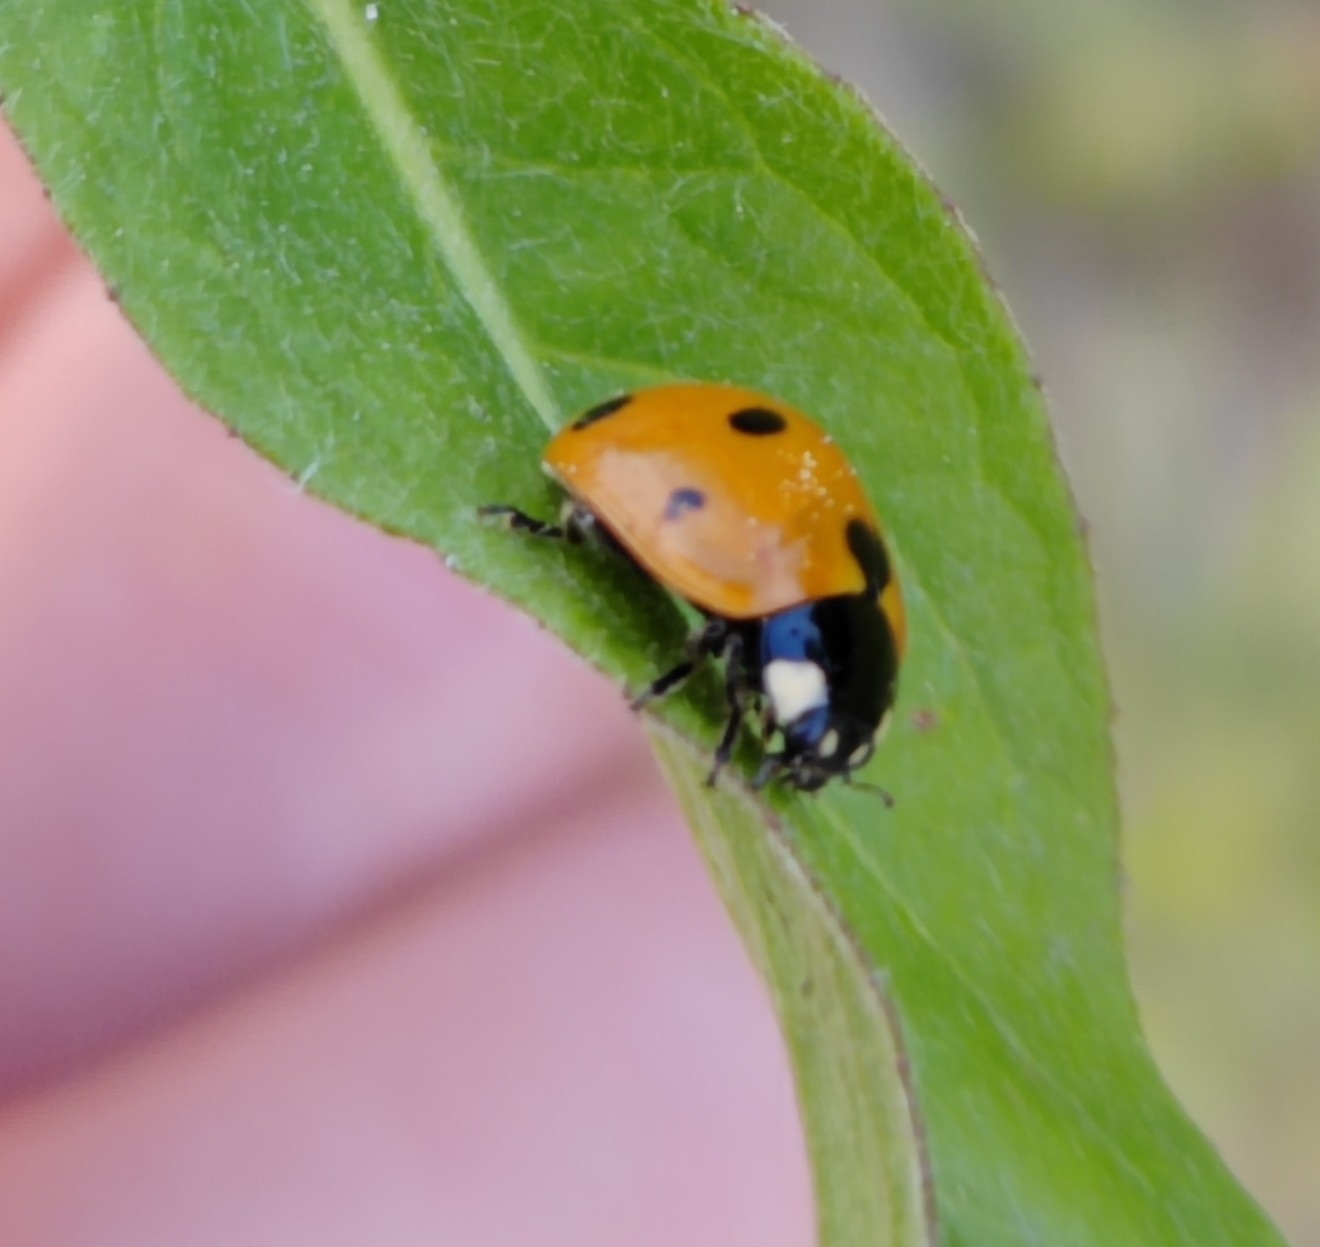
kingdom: Animalia
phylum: Arthropoda
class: Insecta
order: Coleoptera
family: Coccinellidae
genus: Coccinella
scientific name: Coccinella septempunctata
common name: Sevenspotted lady beetle
